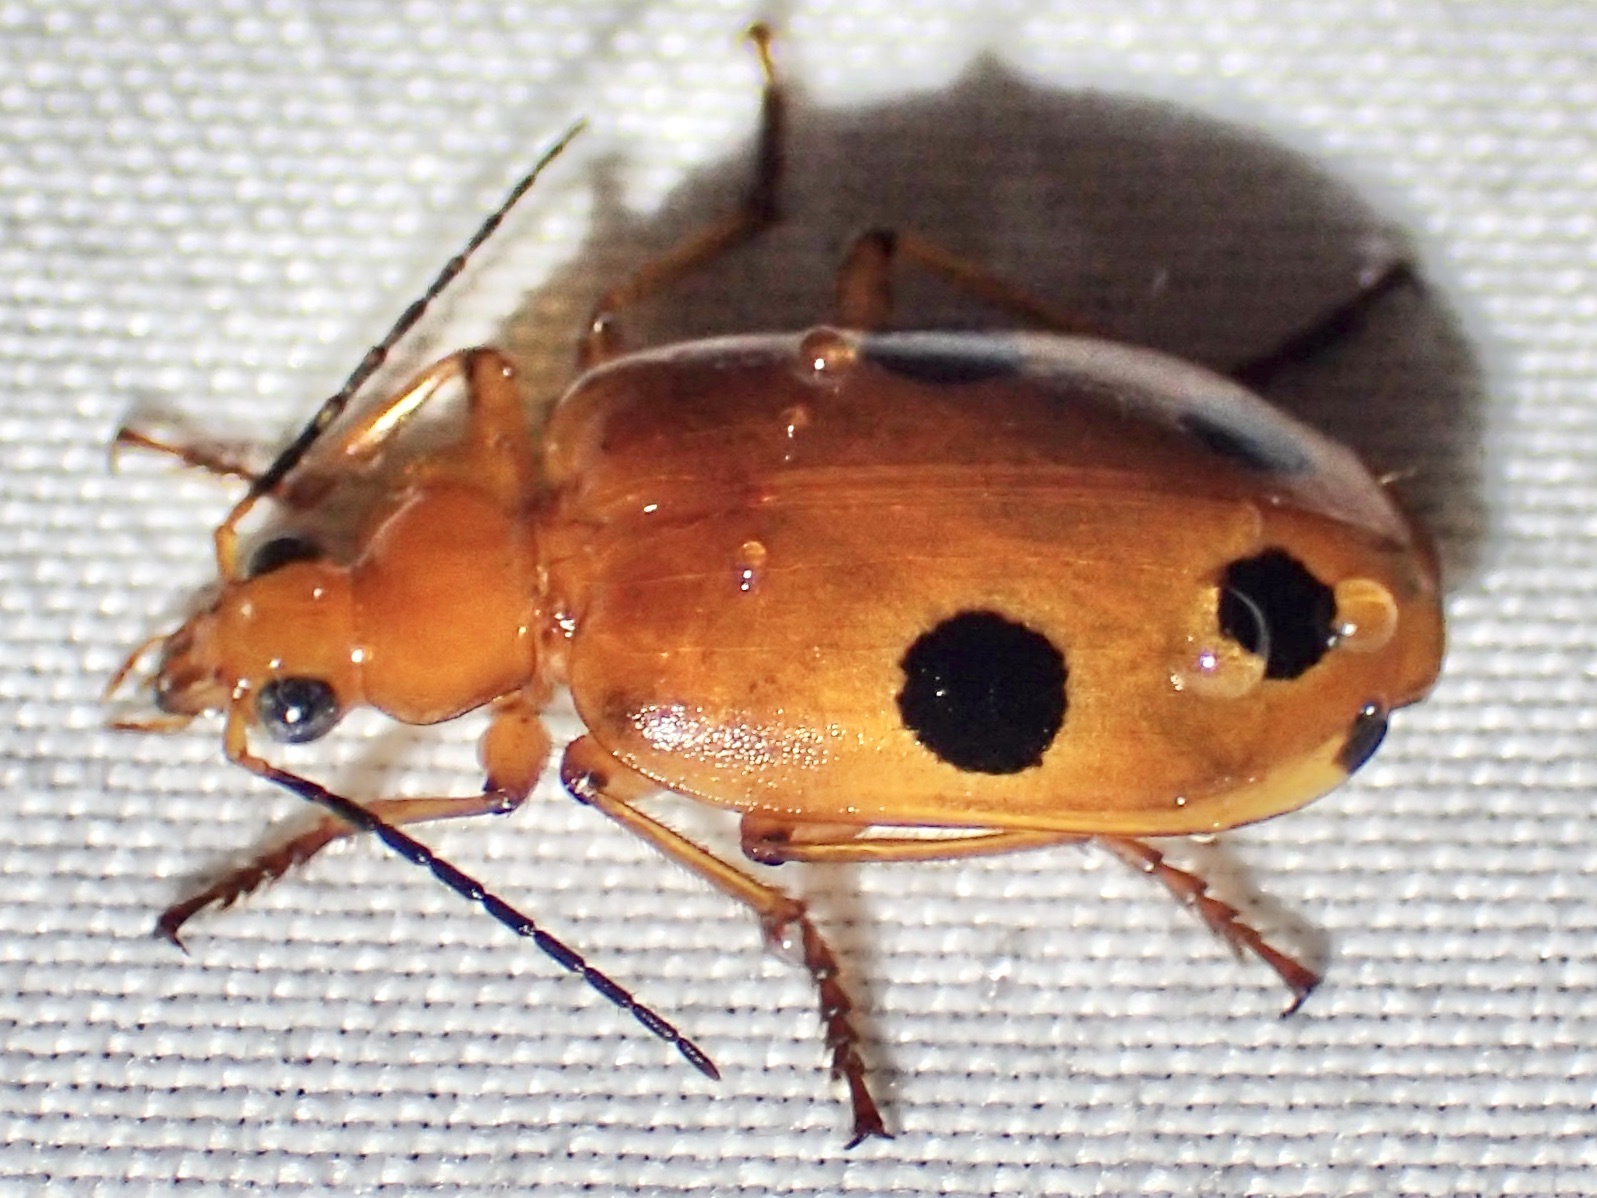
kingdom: Animalia
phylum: Arthropoda
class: Insecta
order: Coleoptera
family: Carabidae
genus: Lebia
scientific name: Lebia balli
